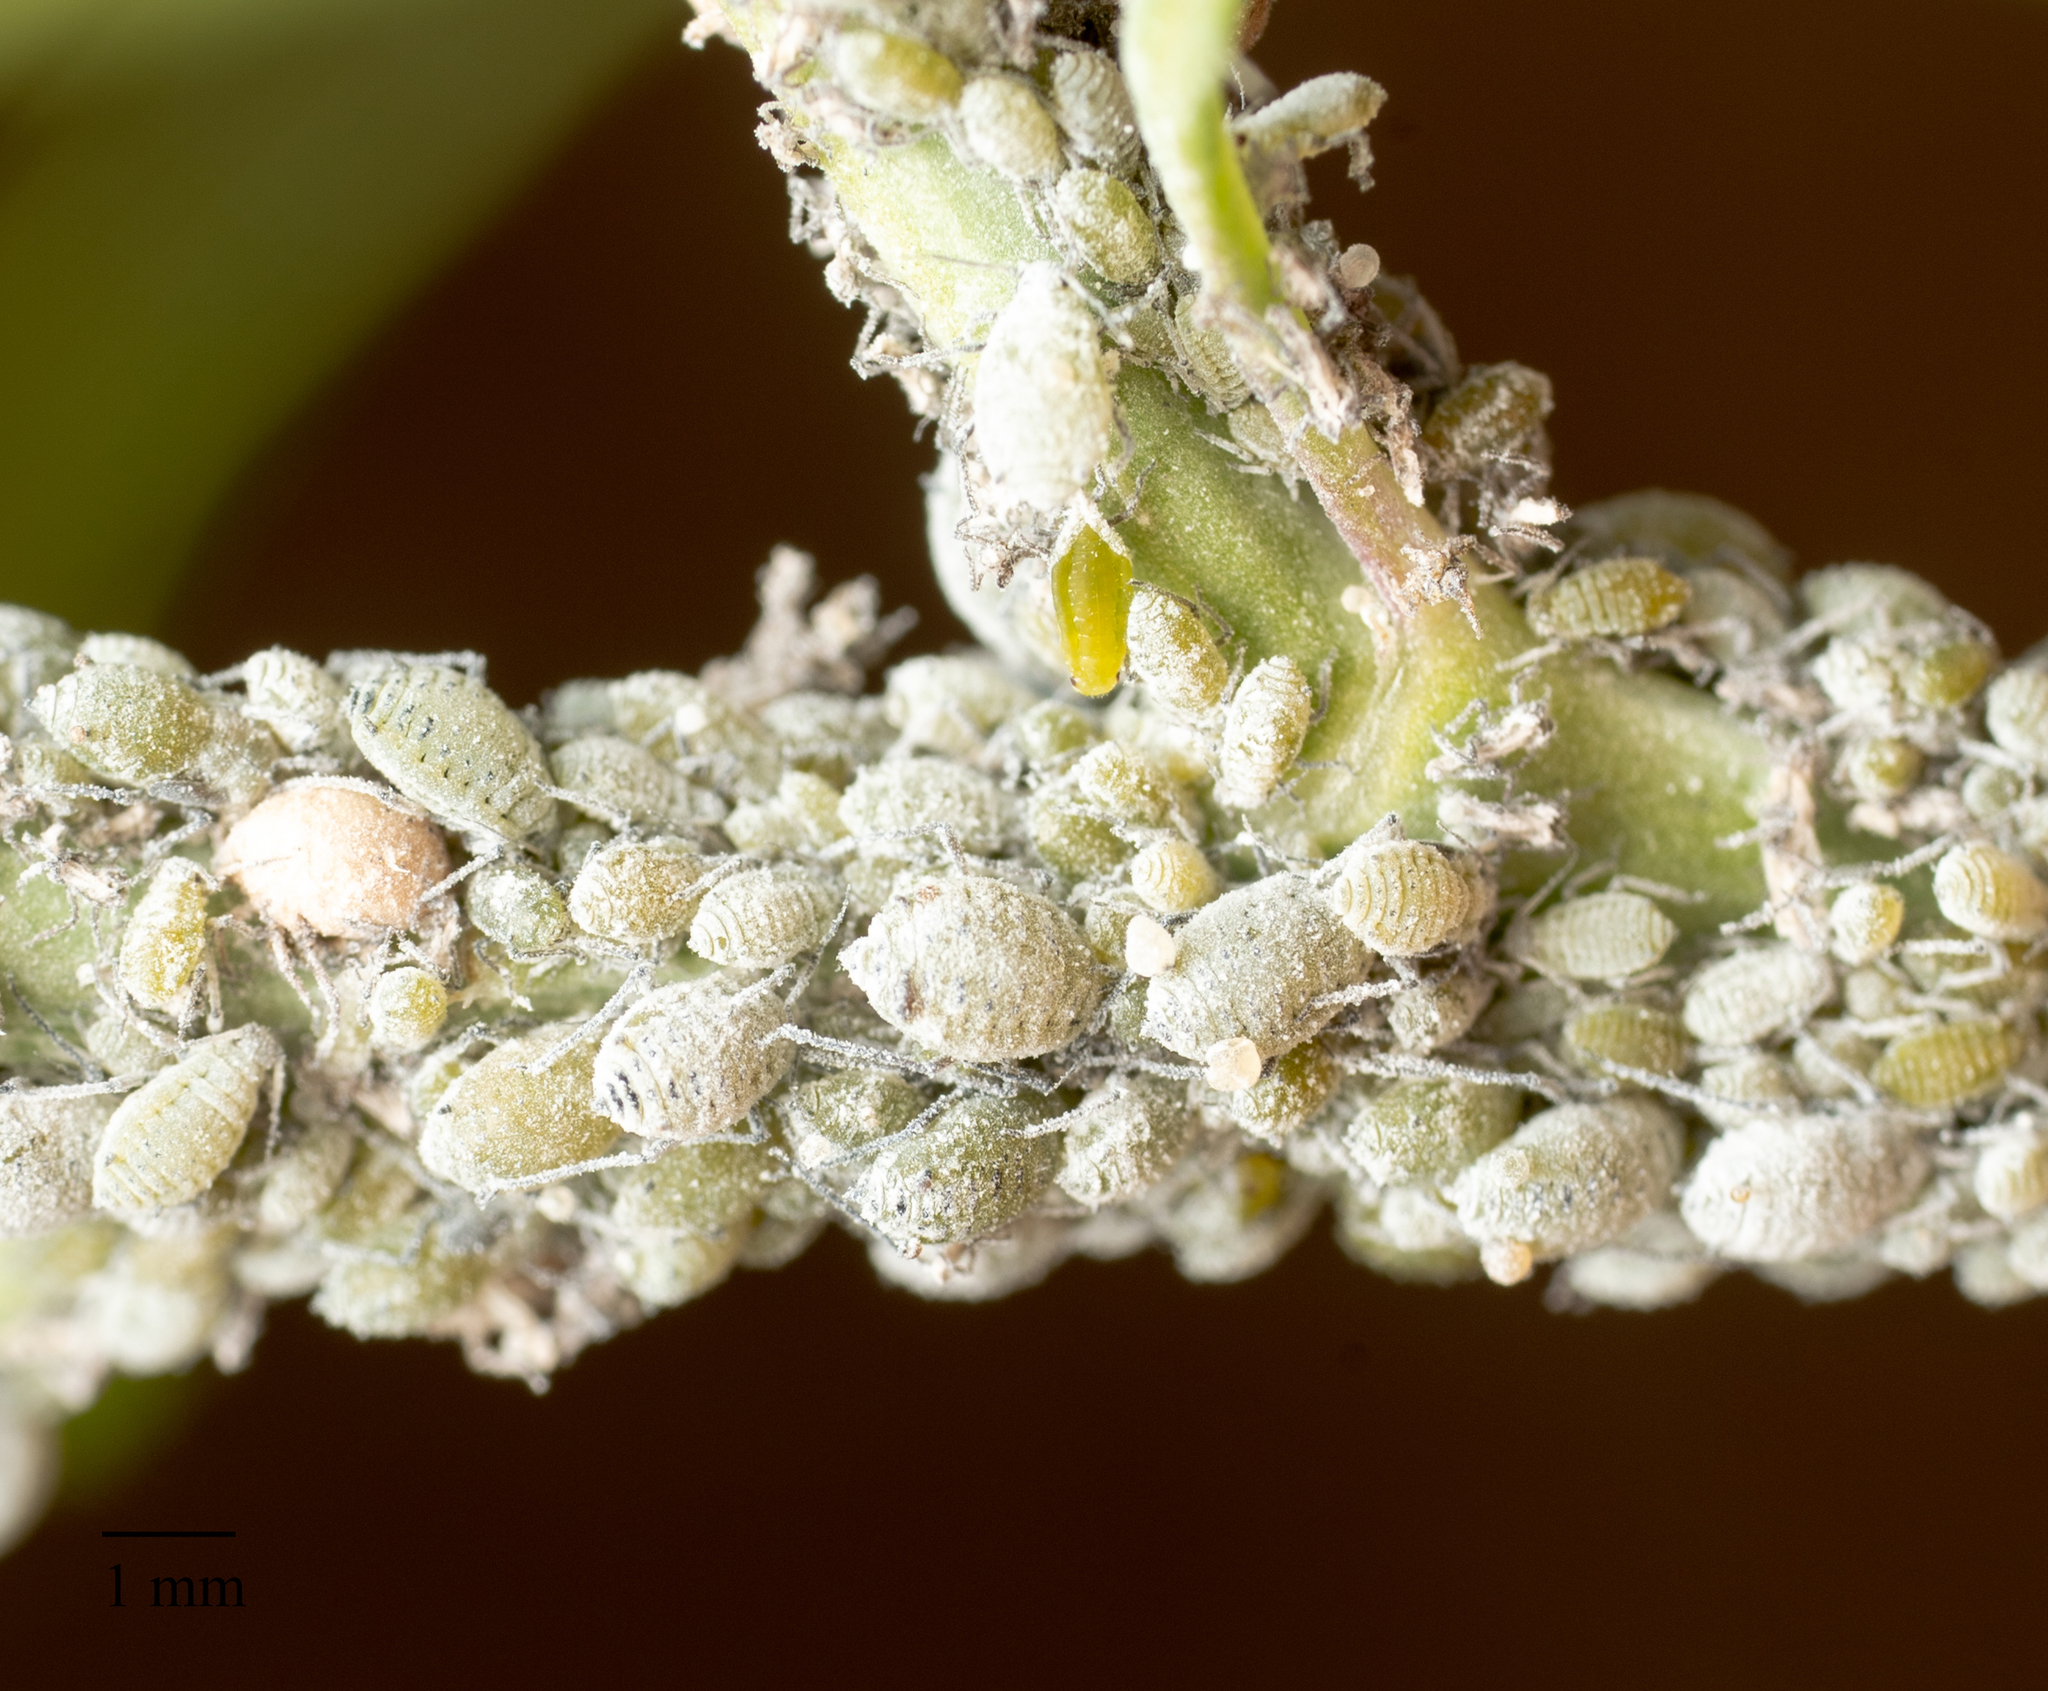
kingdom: Animalia
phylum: Arthropoda
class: Insecta
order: Hemiptera
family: Aphididae
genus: Brevicoryne
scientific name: Brevicoryne brassicae
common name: Cabbage aphid
